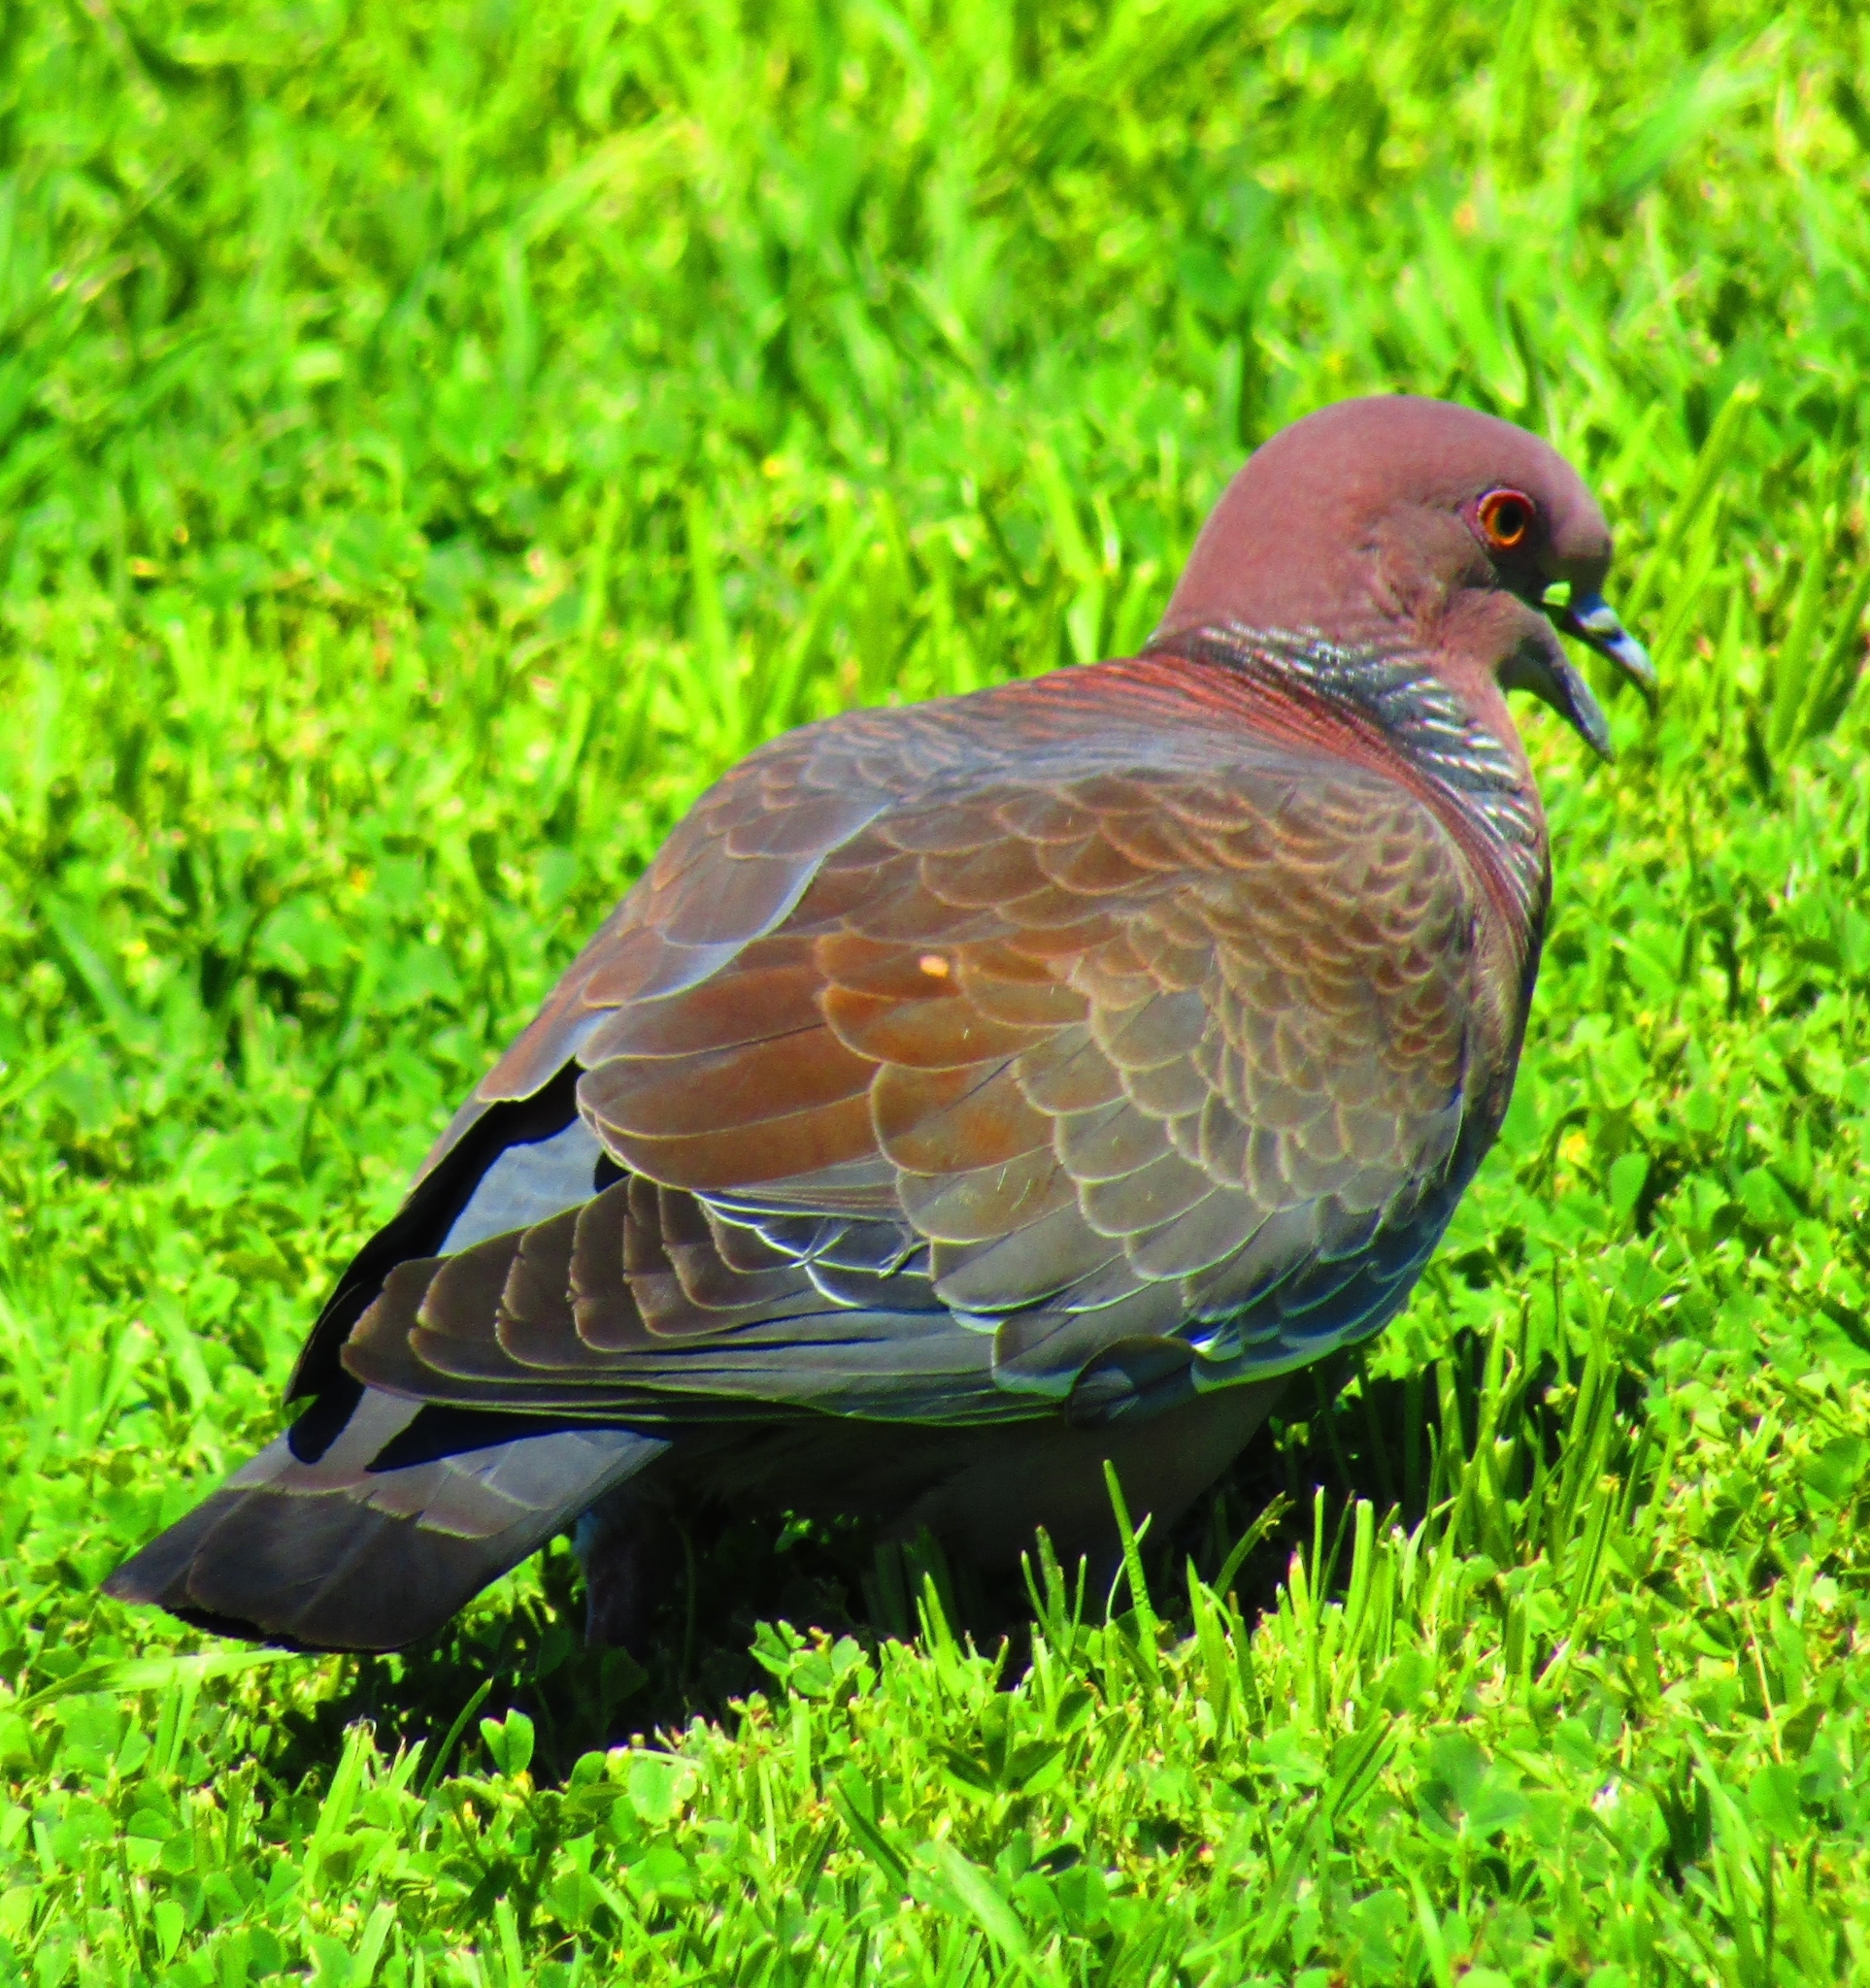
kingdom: Animalia
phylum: Chordata
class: Aves
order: Columbiformes
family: Columbidae
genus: Patagioenas
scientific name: Patagioenas picazuro
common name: Picazuro pigeon
